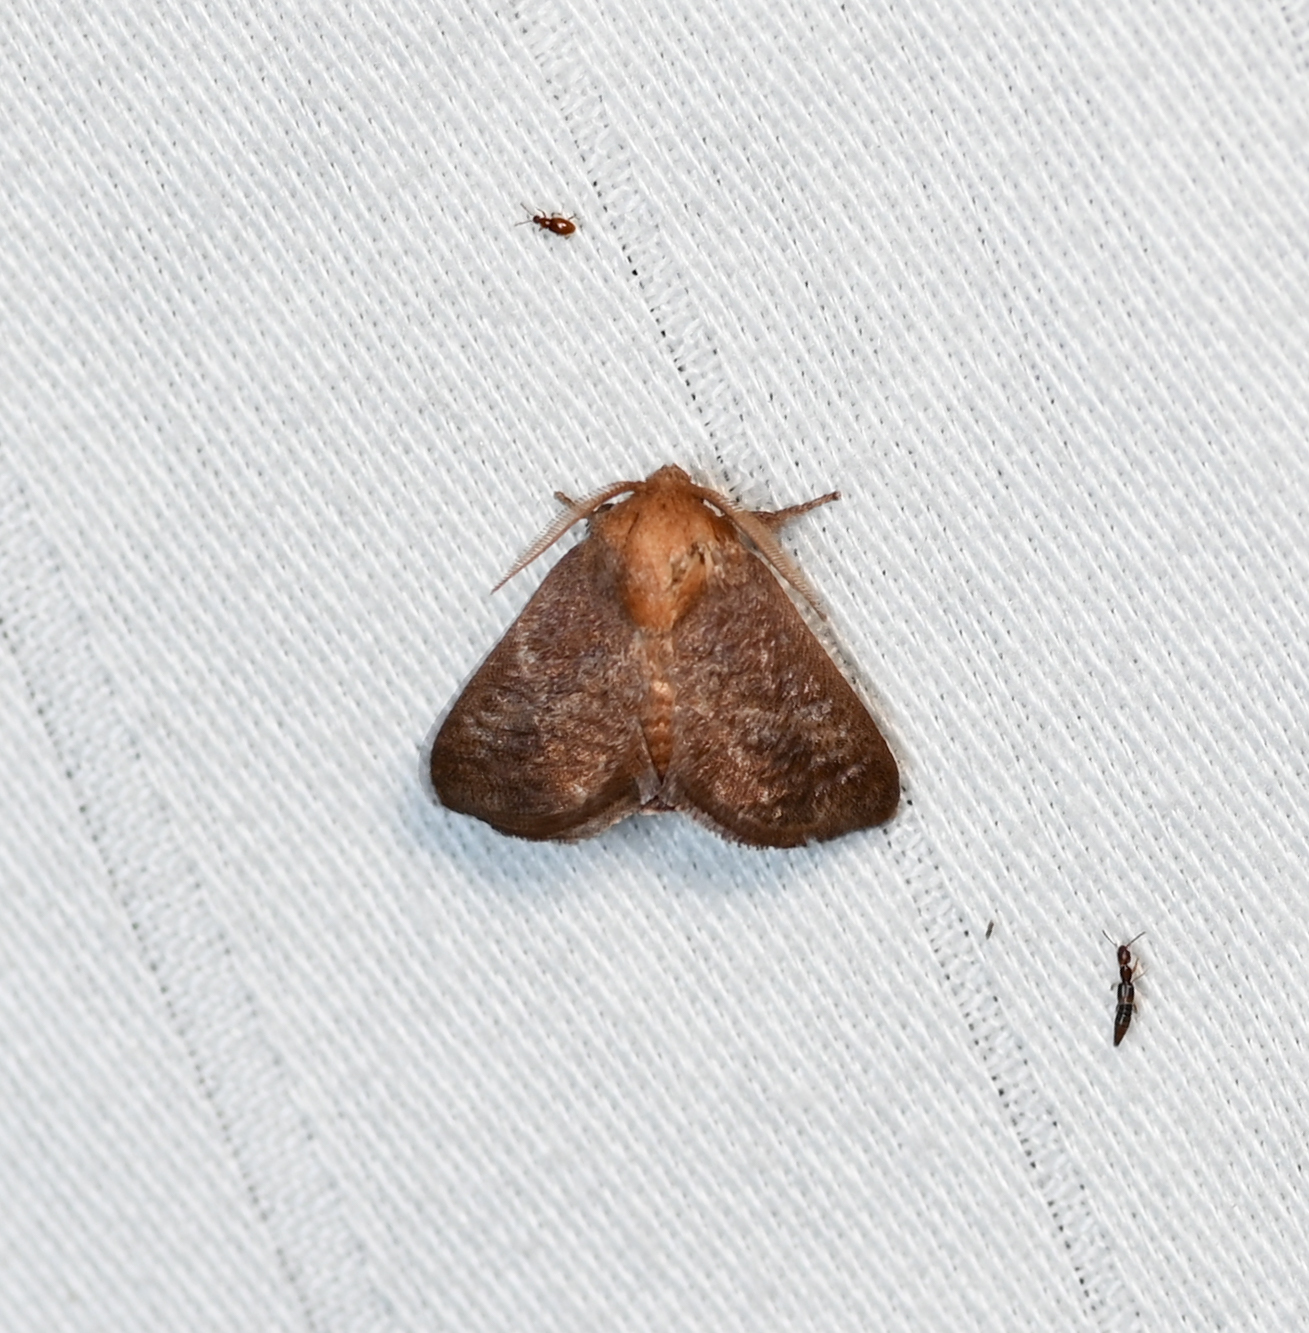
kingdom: Animalia
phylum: Arthropoda
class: Insecta
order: Lepidoptera
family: Limacodidae
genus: Isa
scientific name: Isa textula
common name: Crowned slug moth
